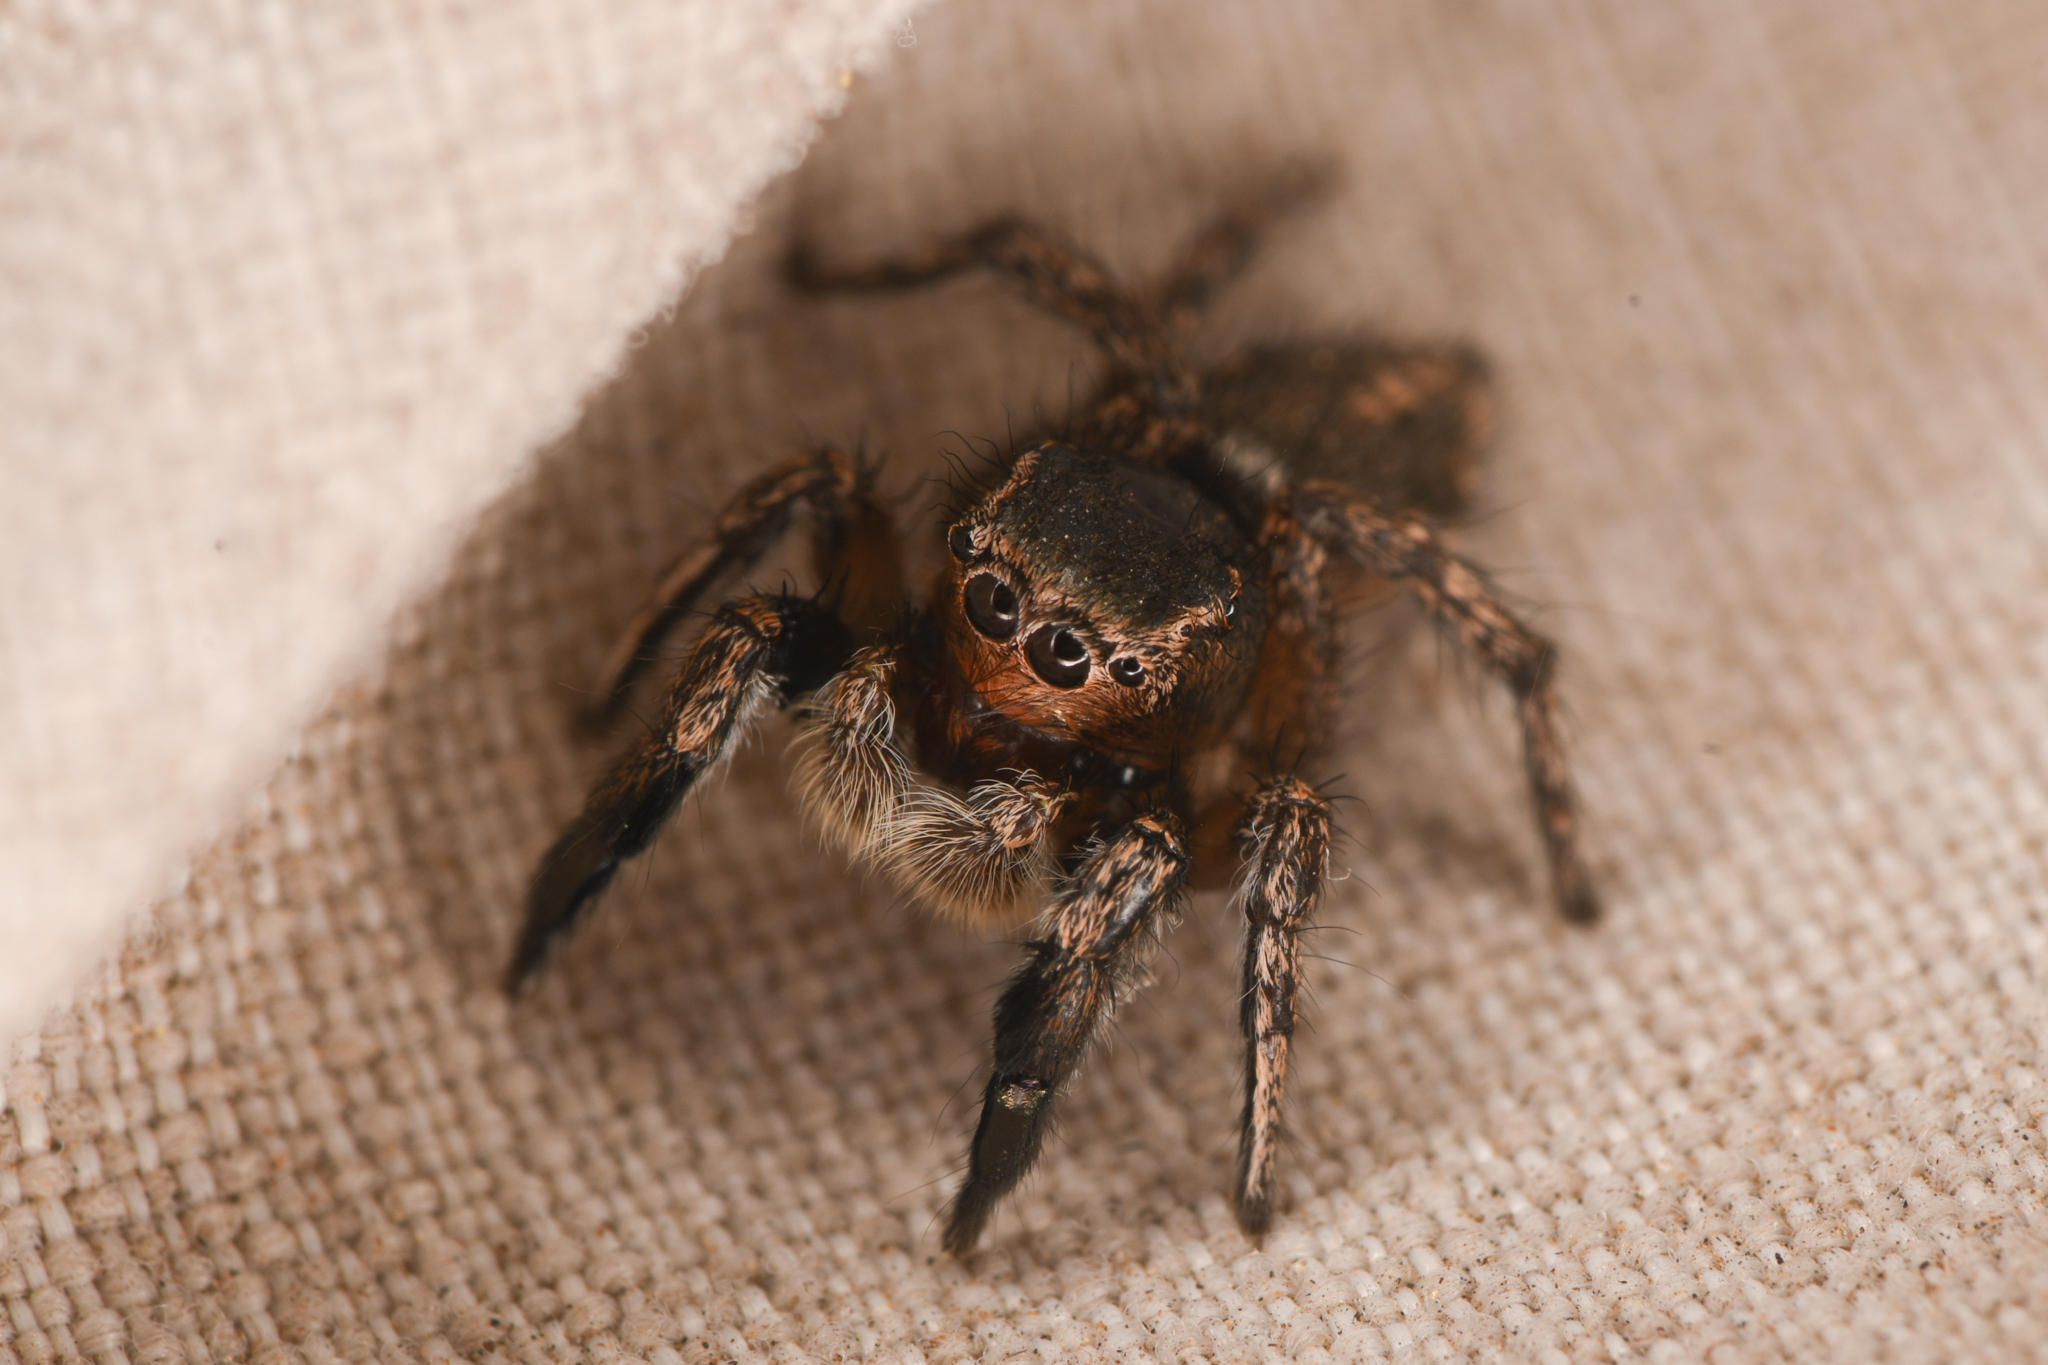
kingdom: Animalia
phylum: Arthropoda
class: Arachnida
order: Araneae
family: Salticidae
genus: Habronattus
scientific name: Habronattus hirsutus
